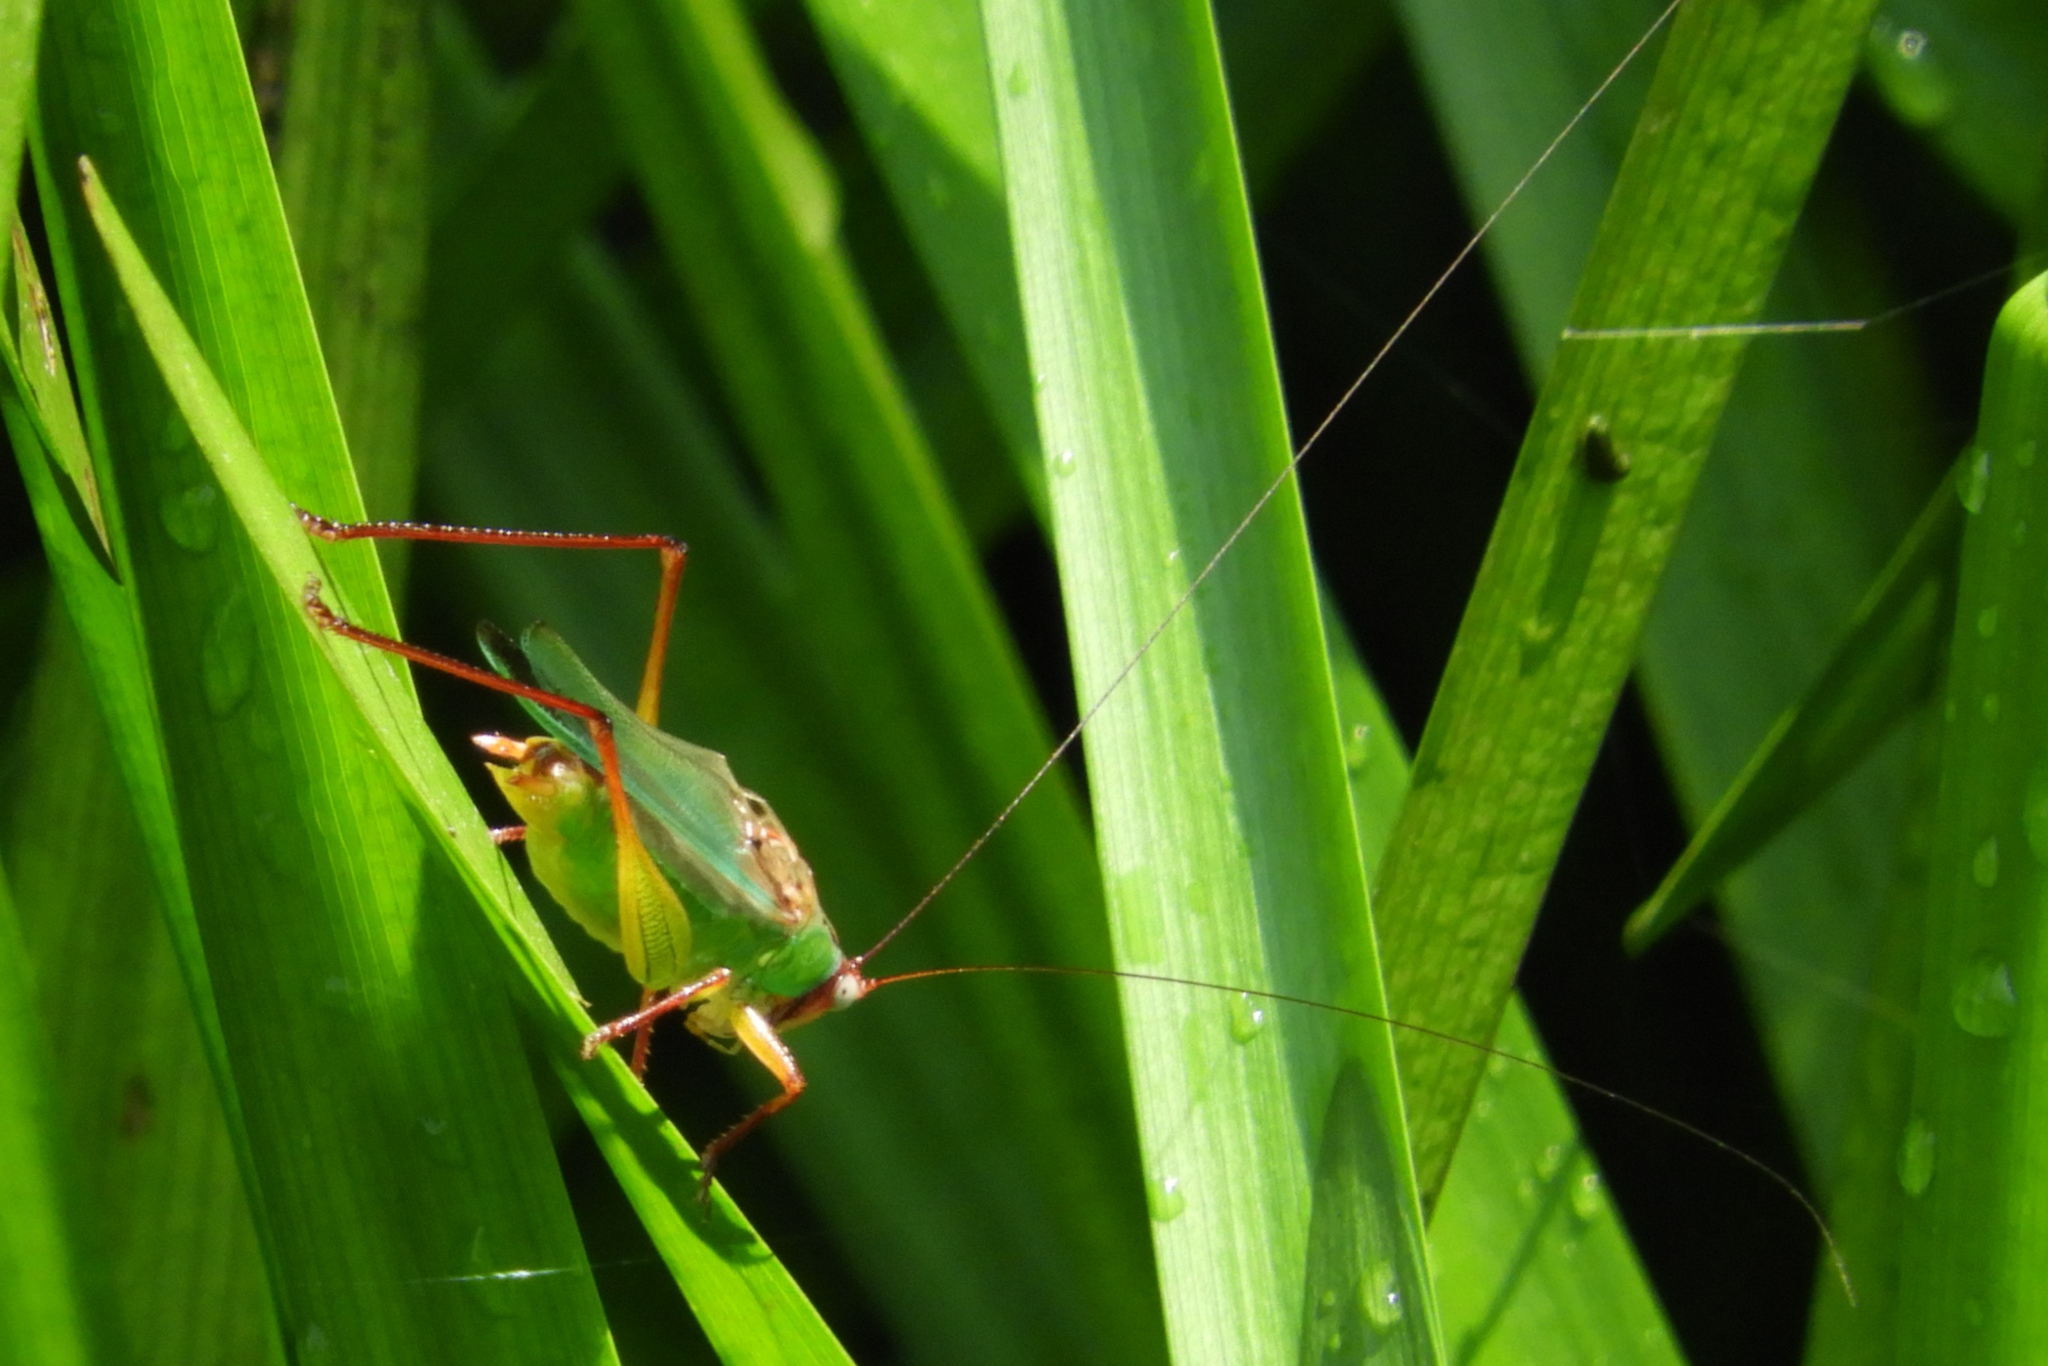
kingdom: Animalia
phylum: Arthropoda
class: Insecta
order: Orthoptera
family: Tettigoniidae
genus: Orchelimum
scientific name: Orchelimum pulchellum
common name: Handsome meadow katydid
